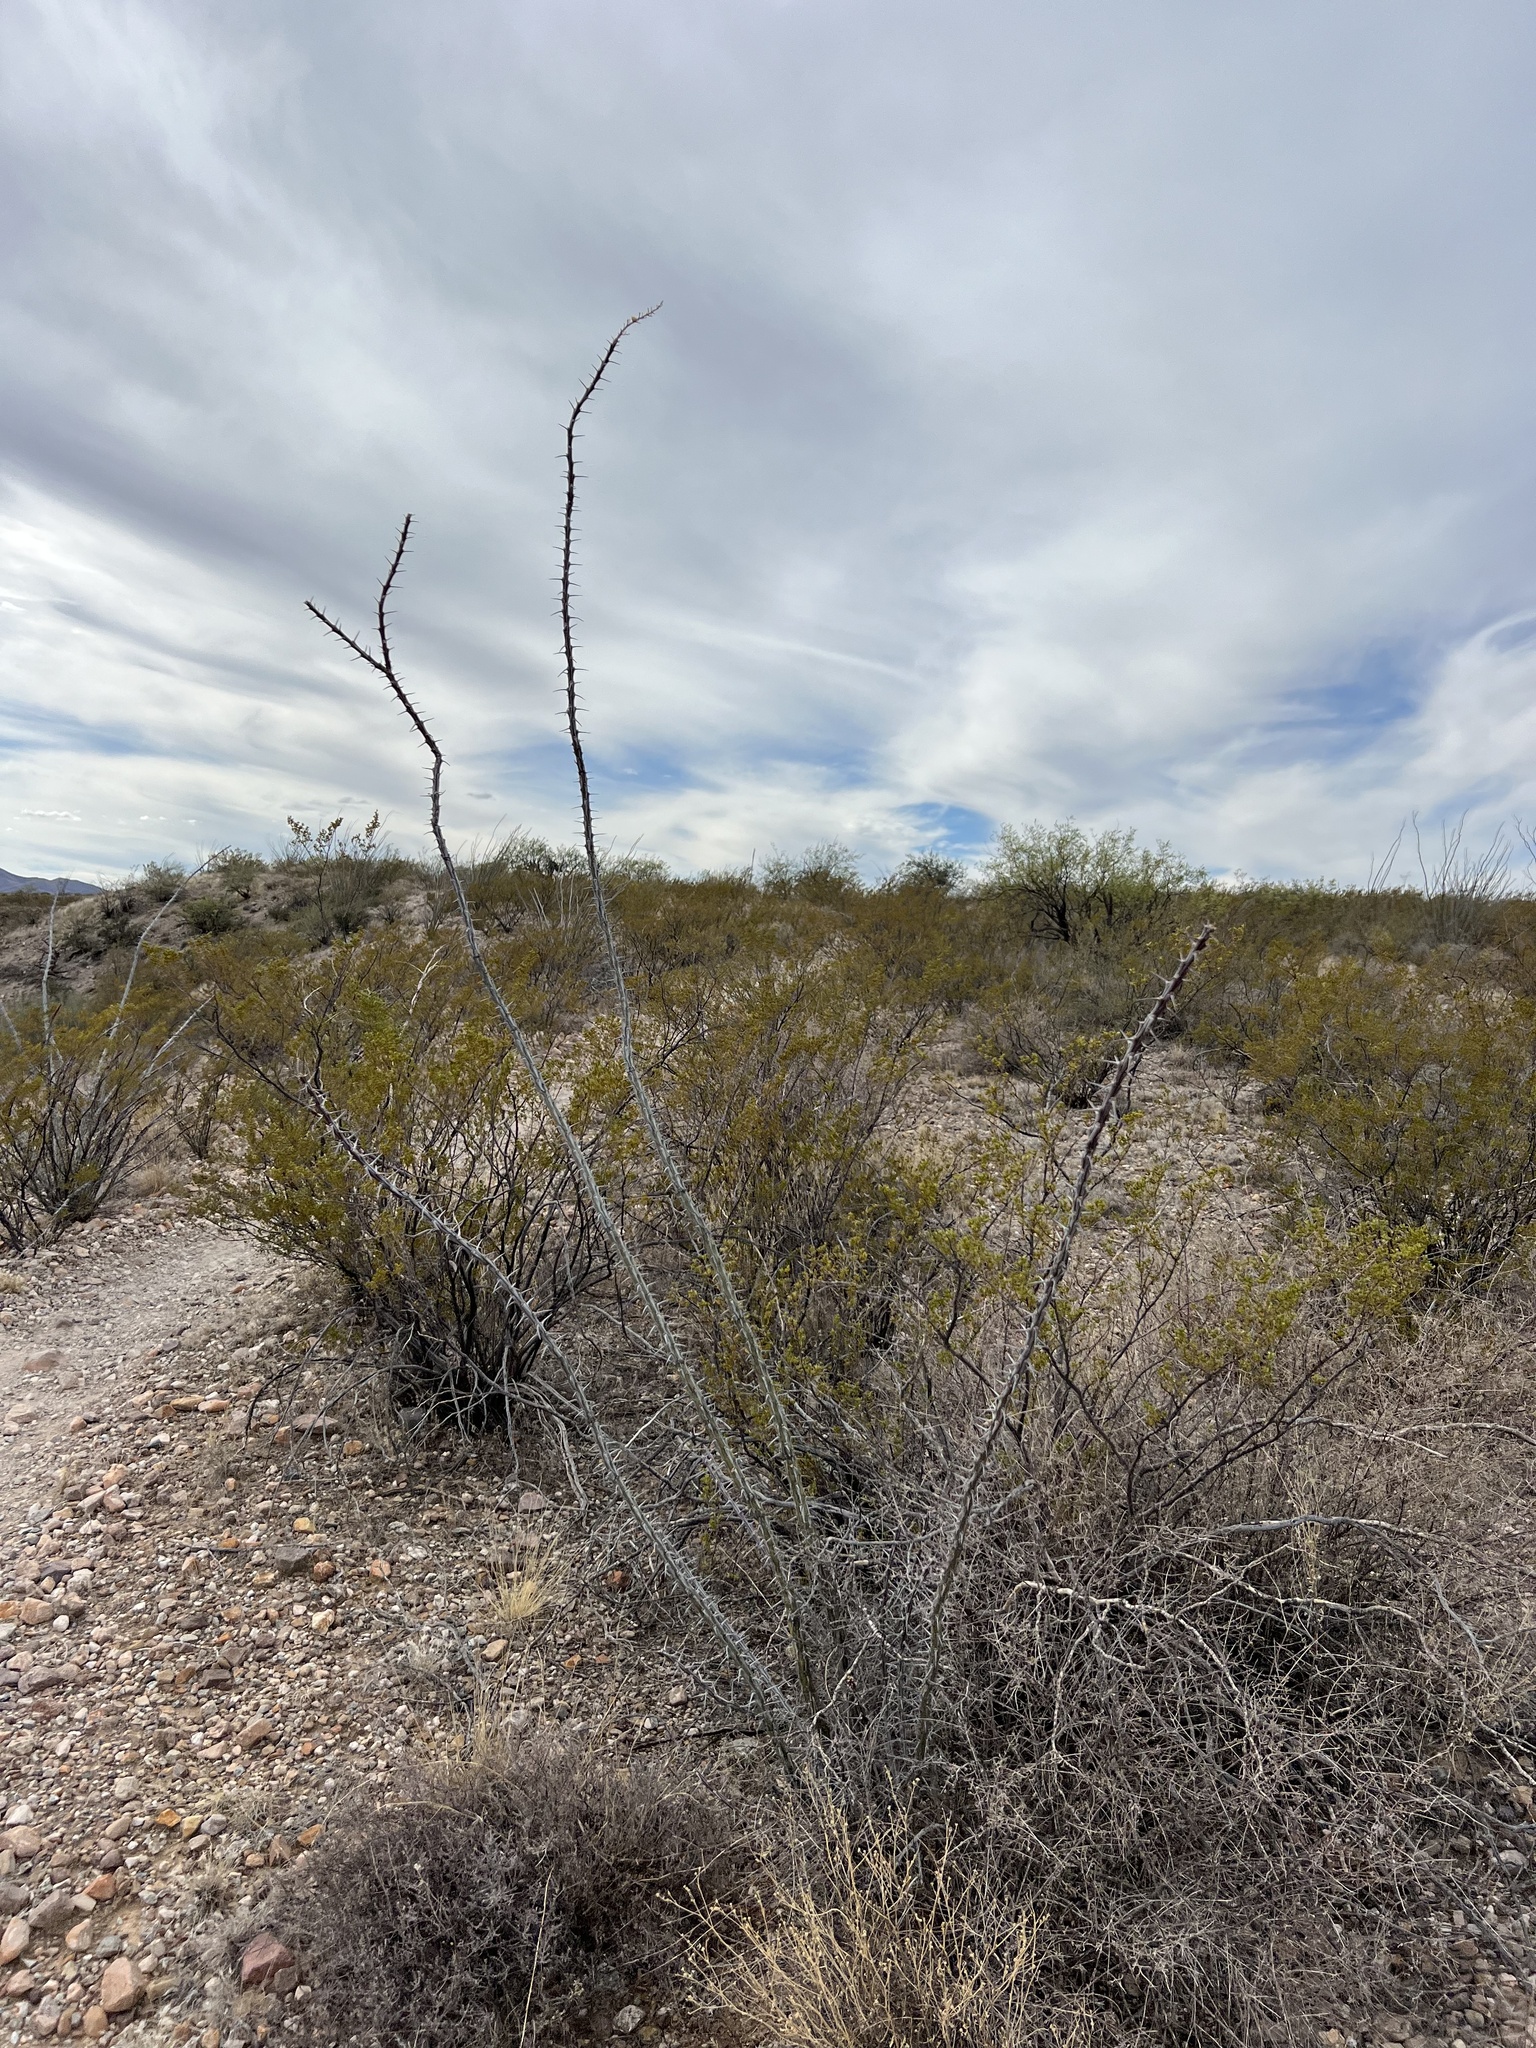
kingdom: Plantae
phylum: Tracheophyta
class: Magnoliopsida
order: Ericales
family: Fouquieriaceae
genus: Fouquieria
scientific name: Fouquieria splendens
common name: Vine-cactus
